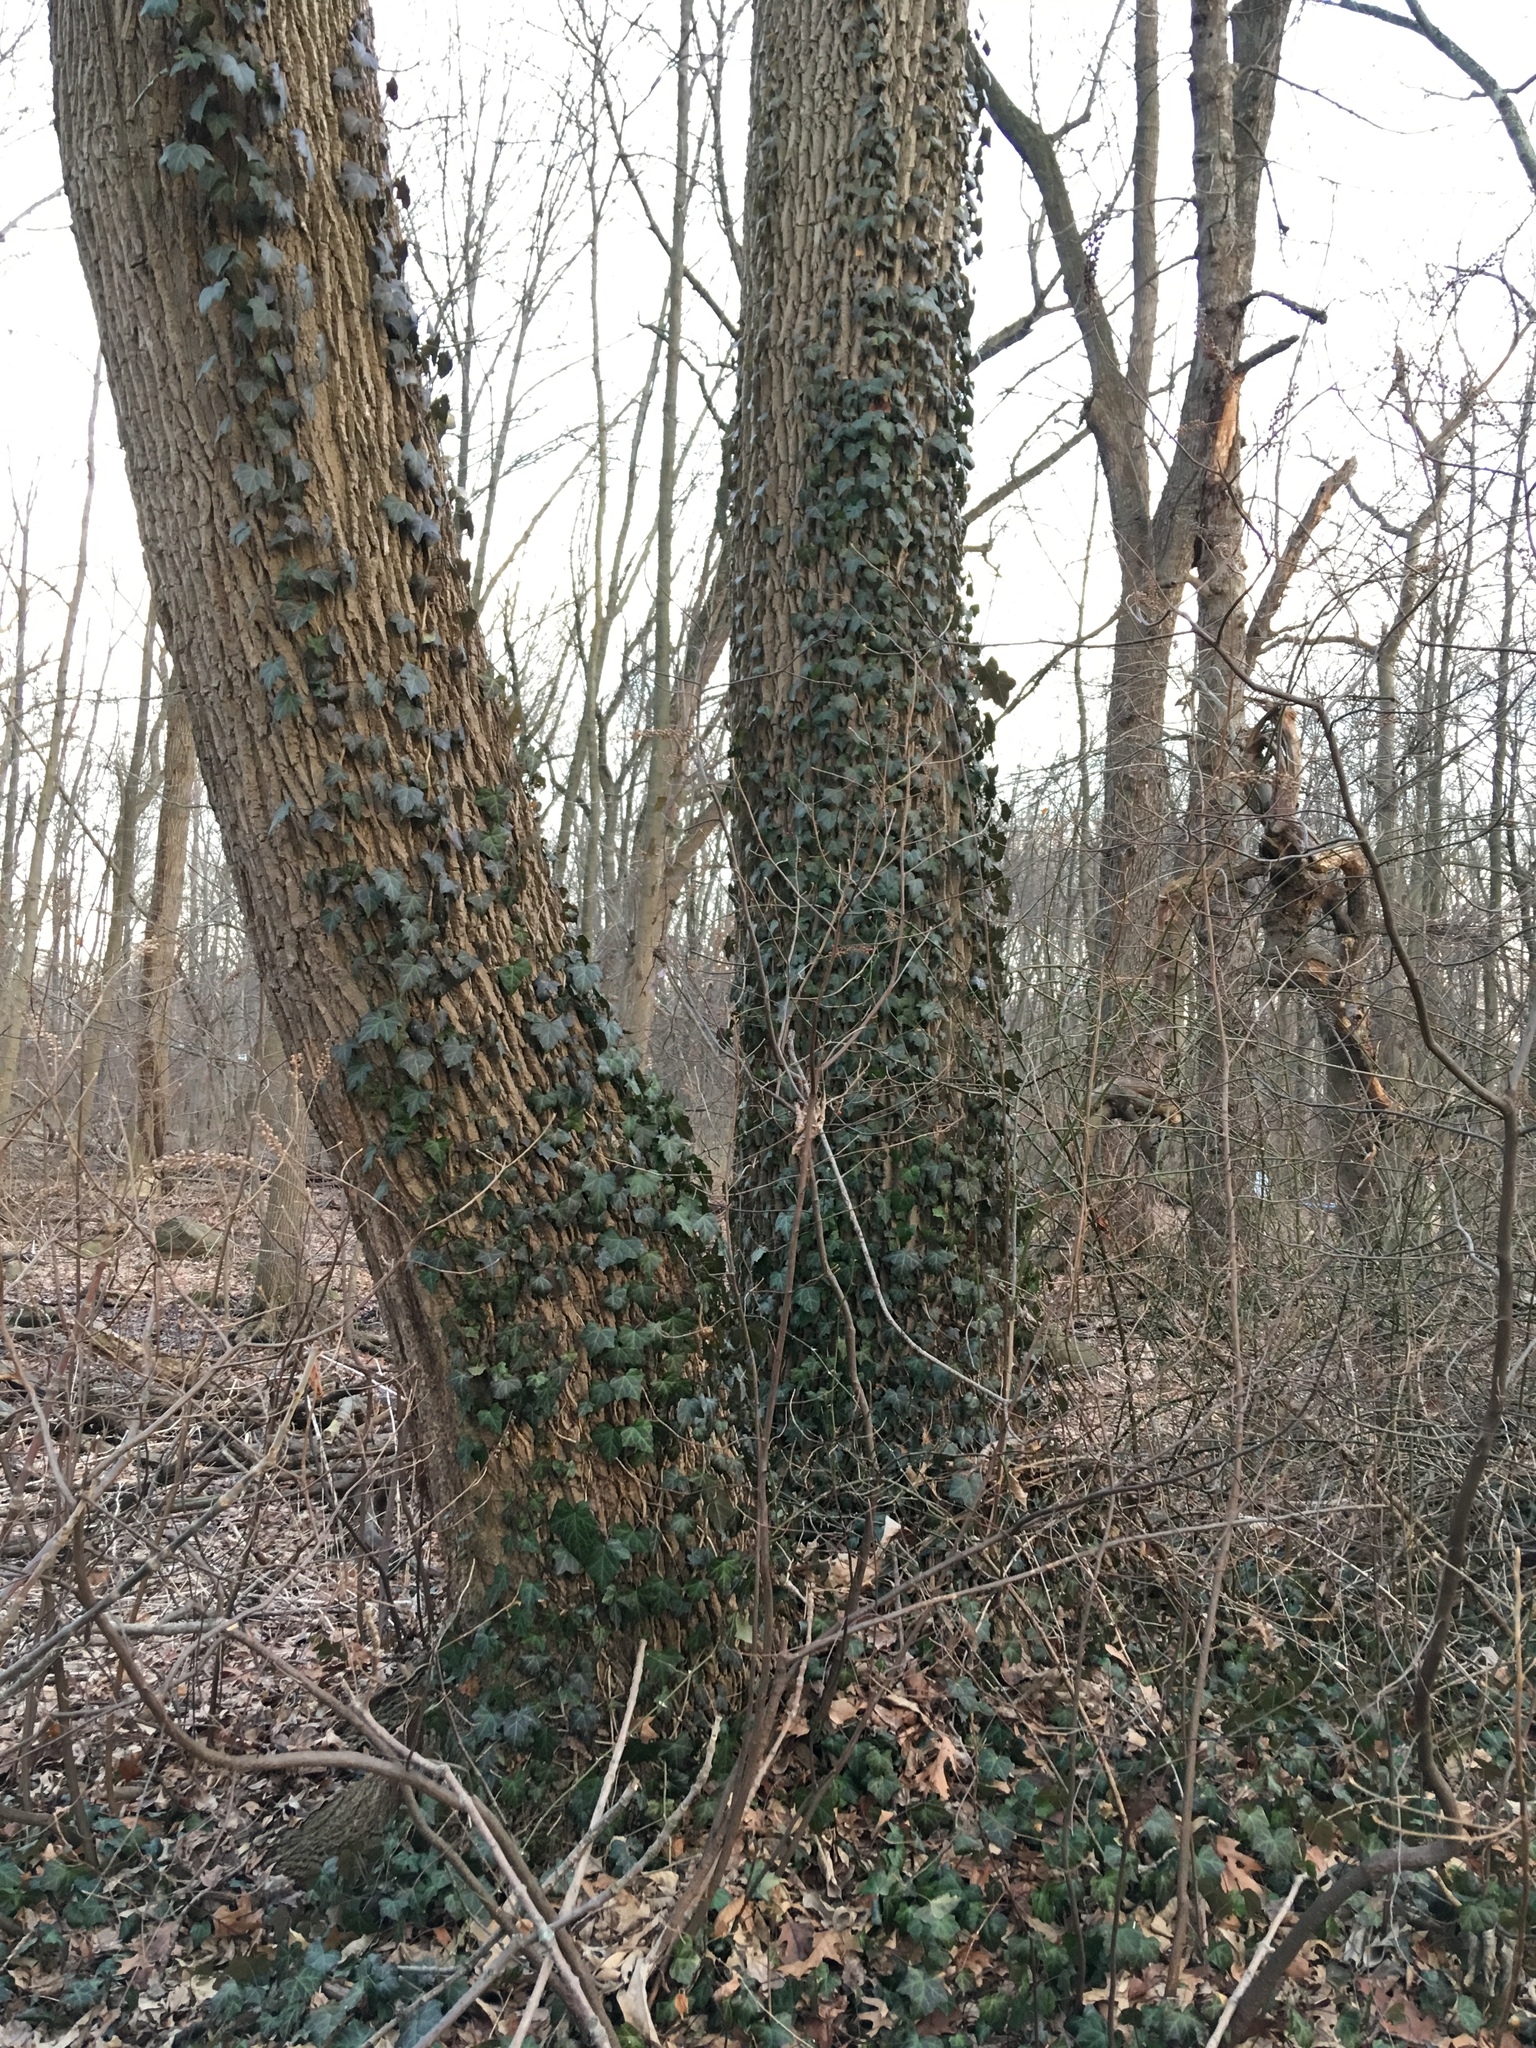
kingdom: Plantae
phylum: Tracheophyta
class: Magnoliopsida
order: Apiales
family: Araliaceae
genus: Hedera
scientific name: Hedera helix
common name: Ivy
